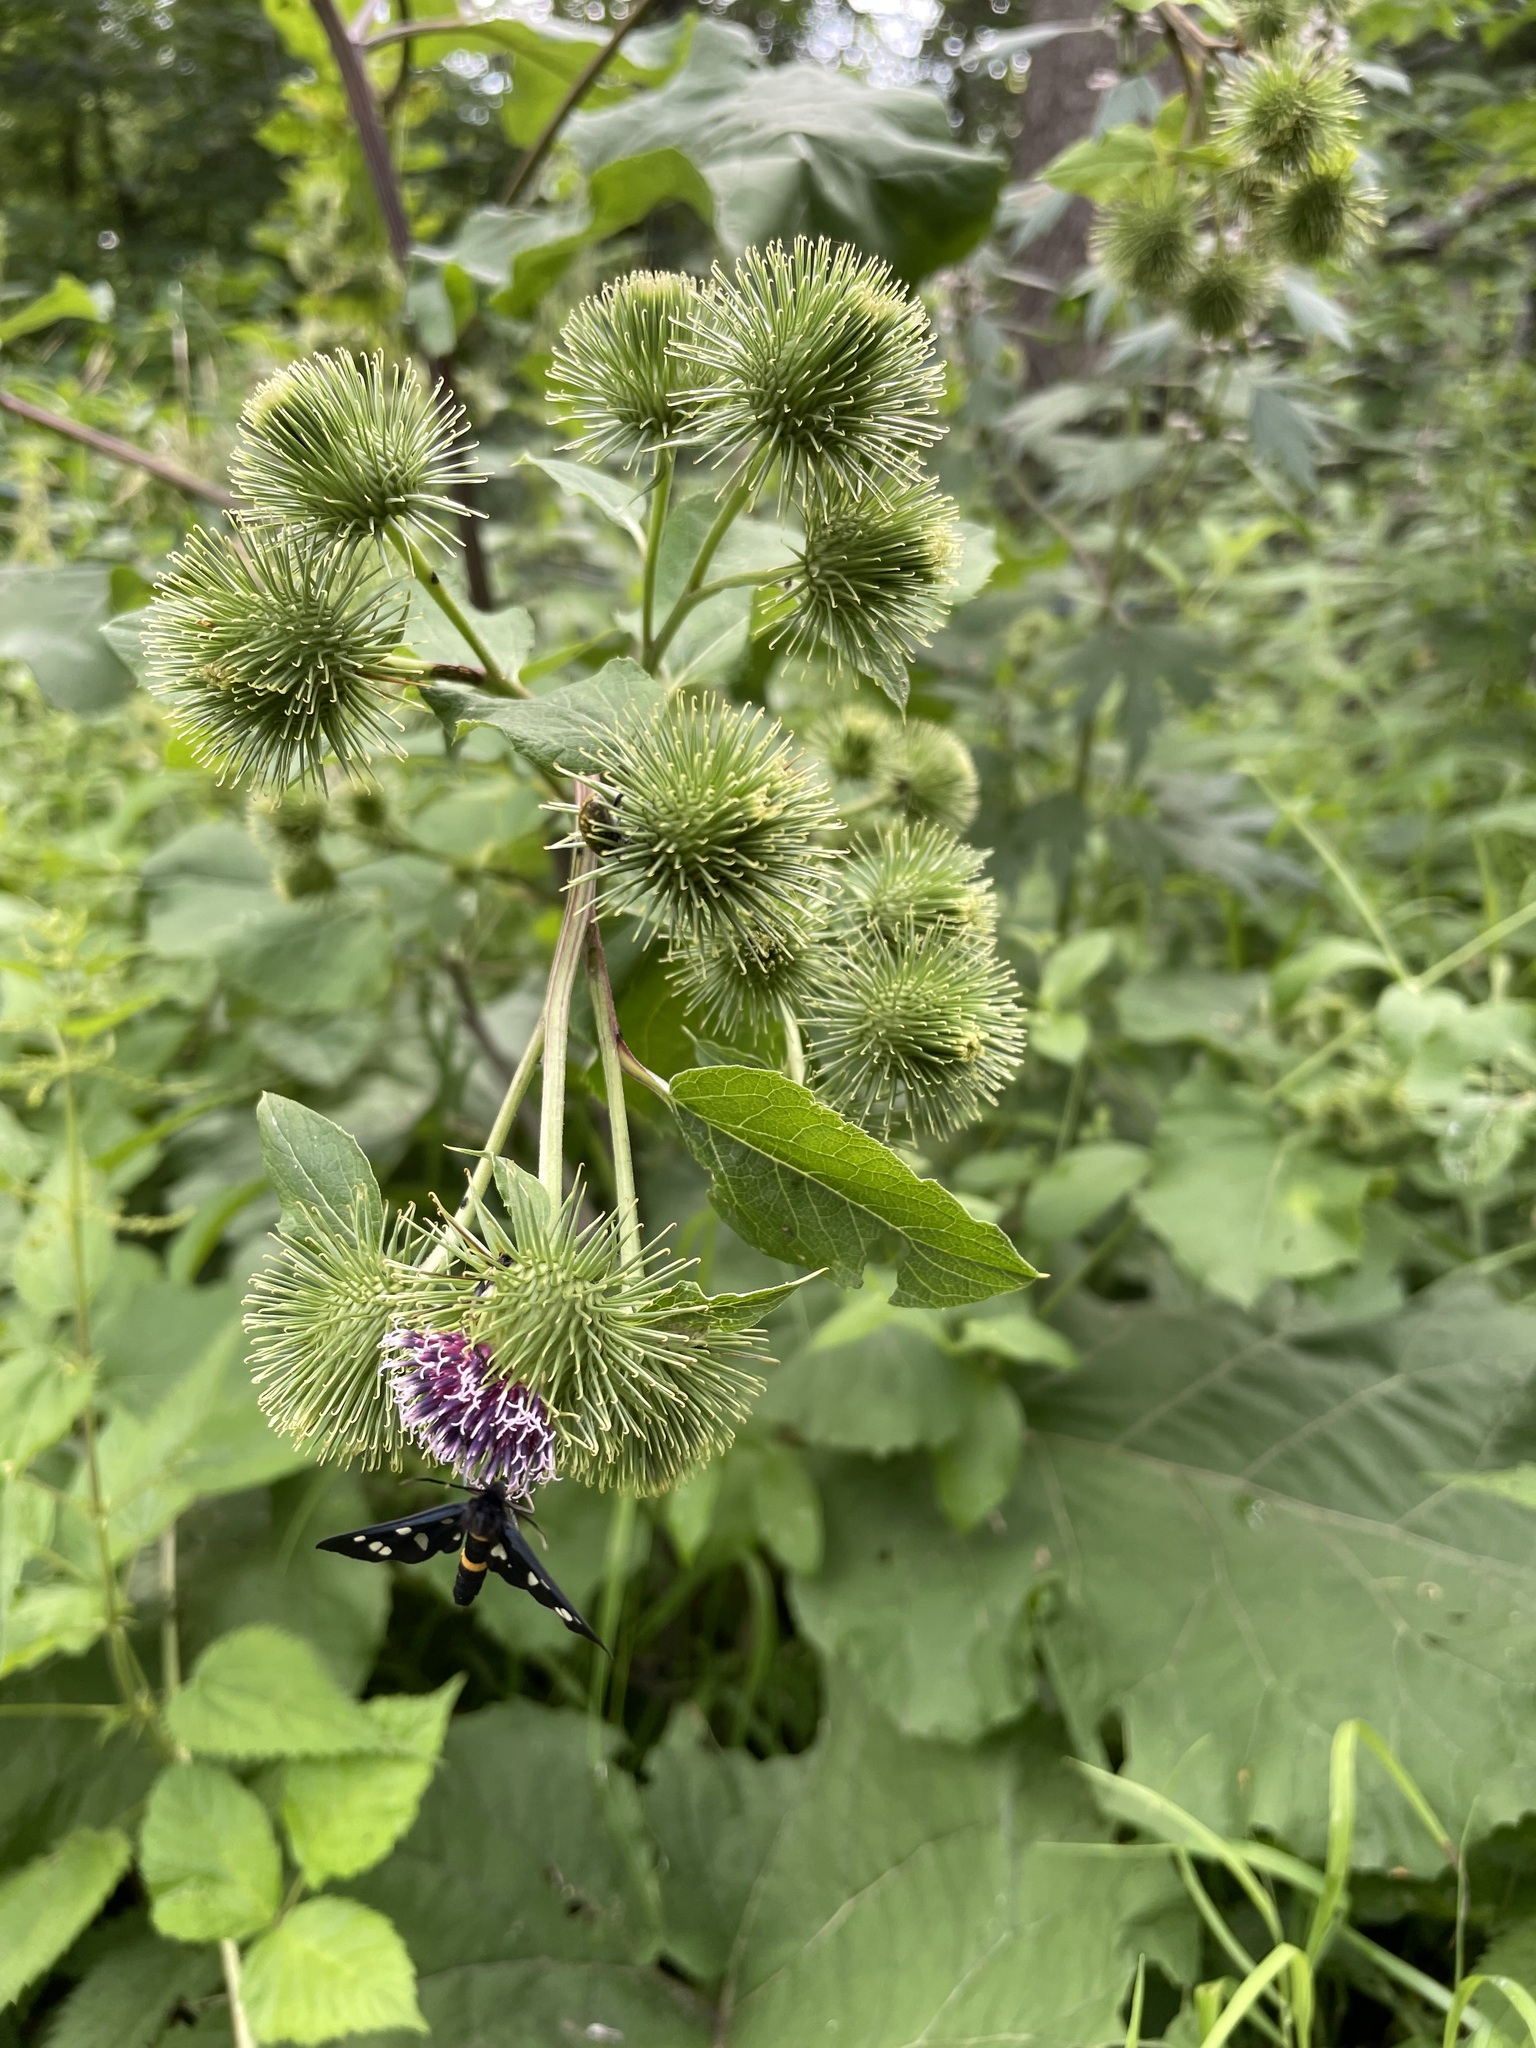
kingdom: Plantae
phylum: Tracheophyta
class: Magnoliopsida
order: Asterales
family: Asteraceae
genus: Arctium
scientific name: Arctium lappa
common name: Greater burdock
